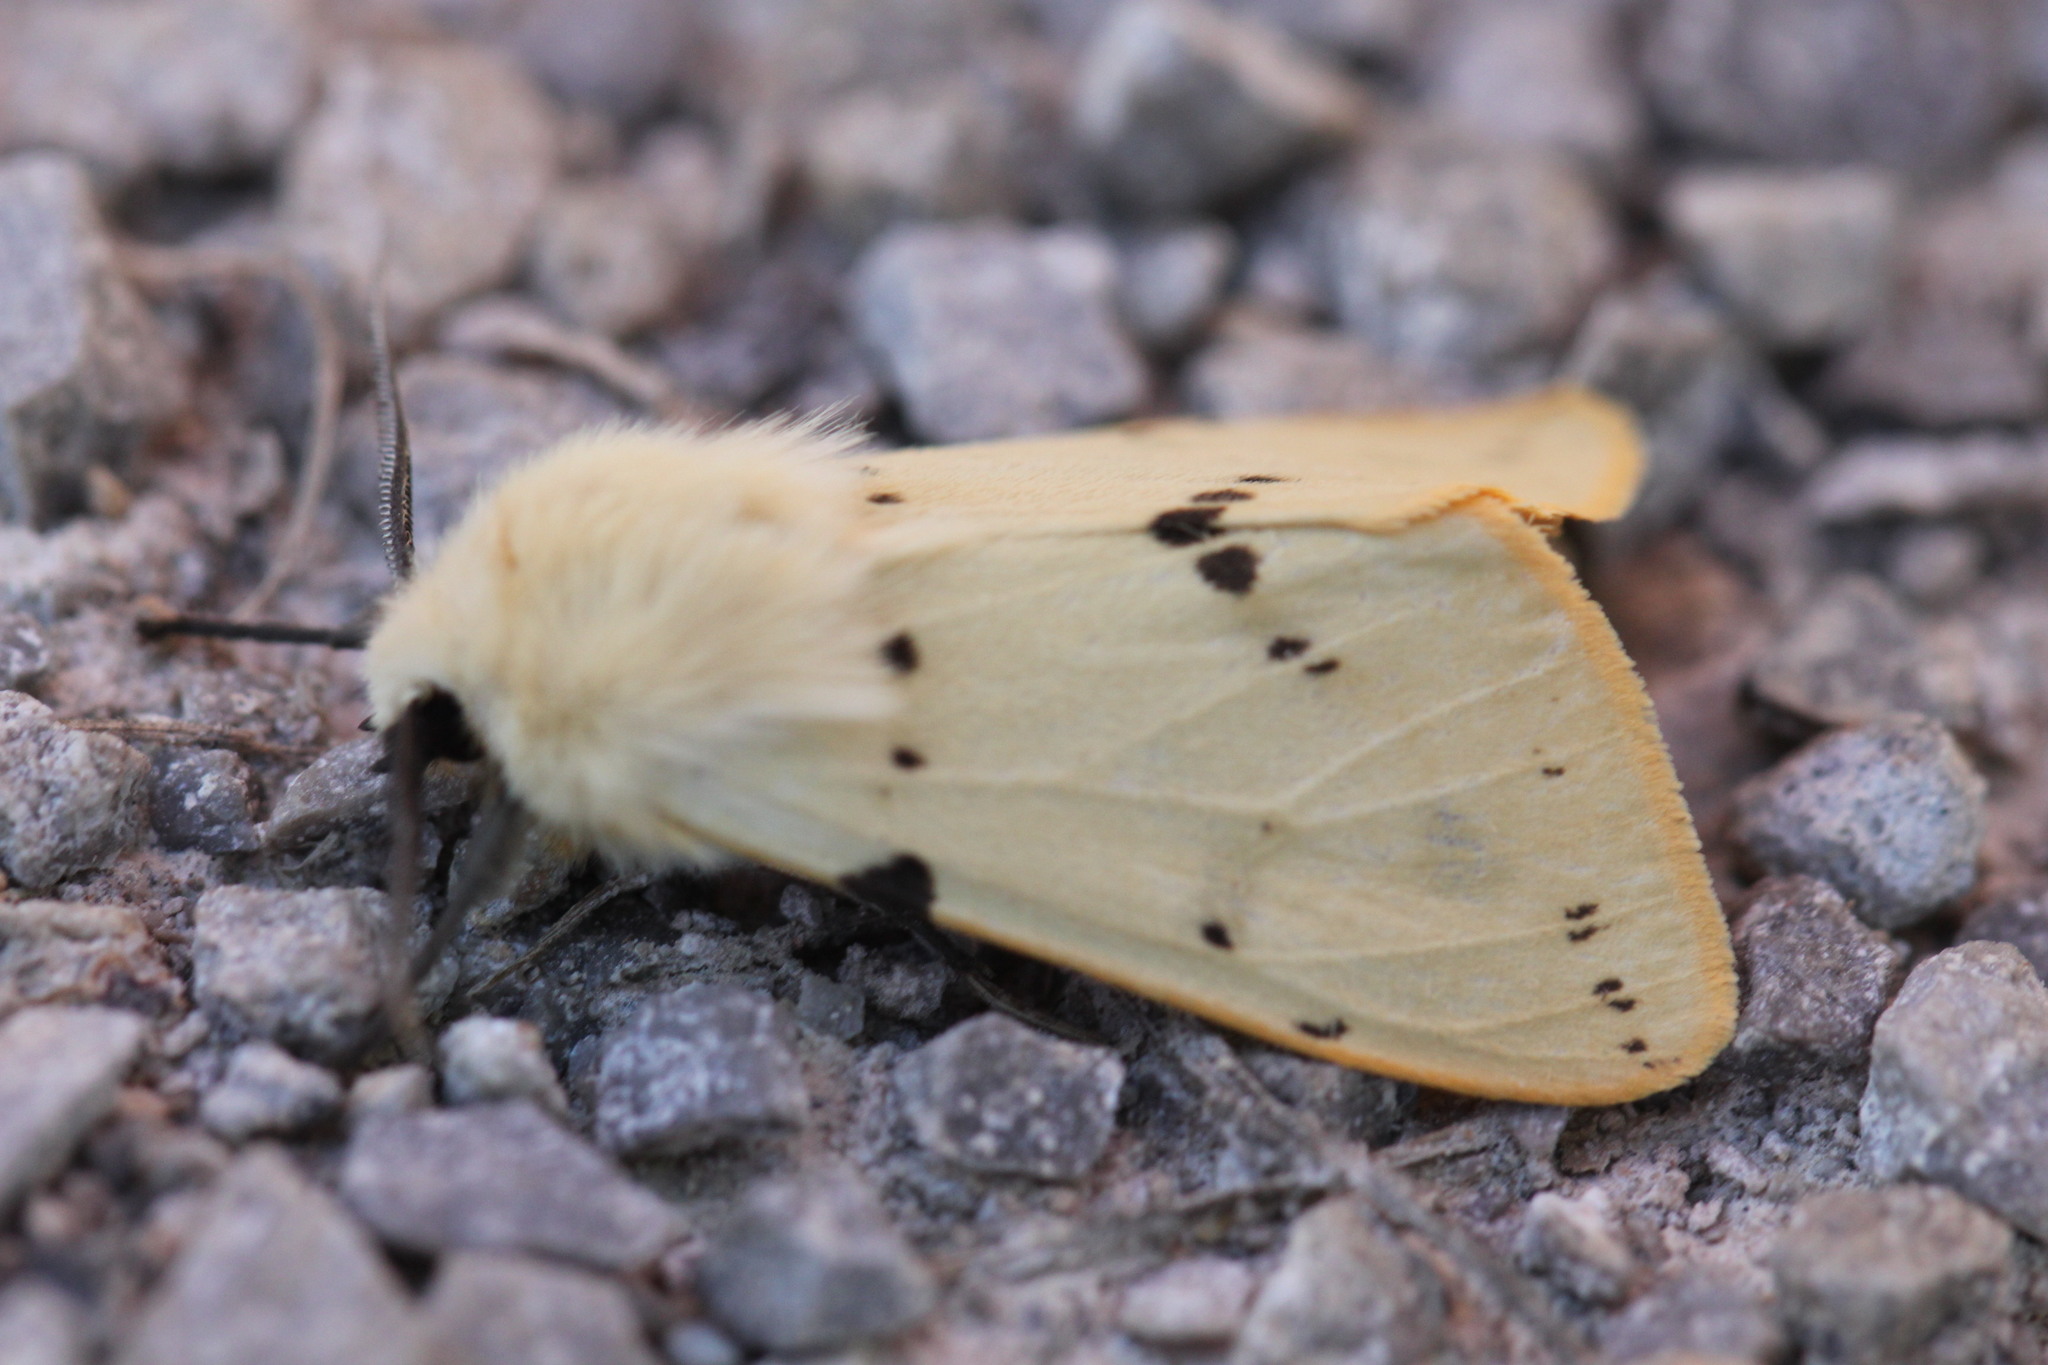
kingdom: Animalia
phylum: Arthropoda
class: Insecta
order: Lepidoptera
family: Erebidae
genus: Spilarctia
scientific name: Spilarctia lutea
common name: Buff ermine
